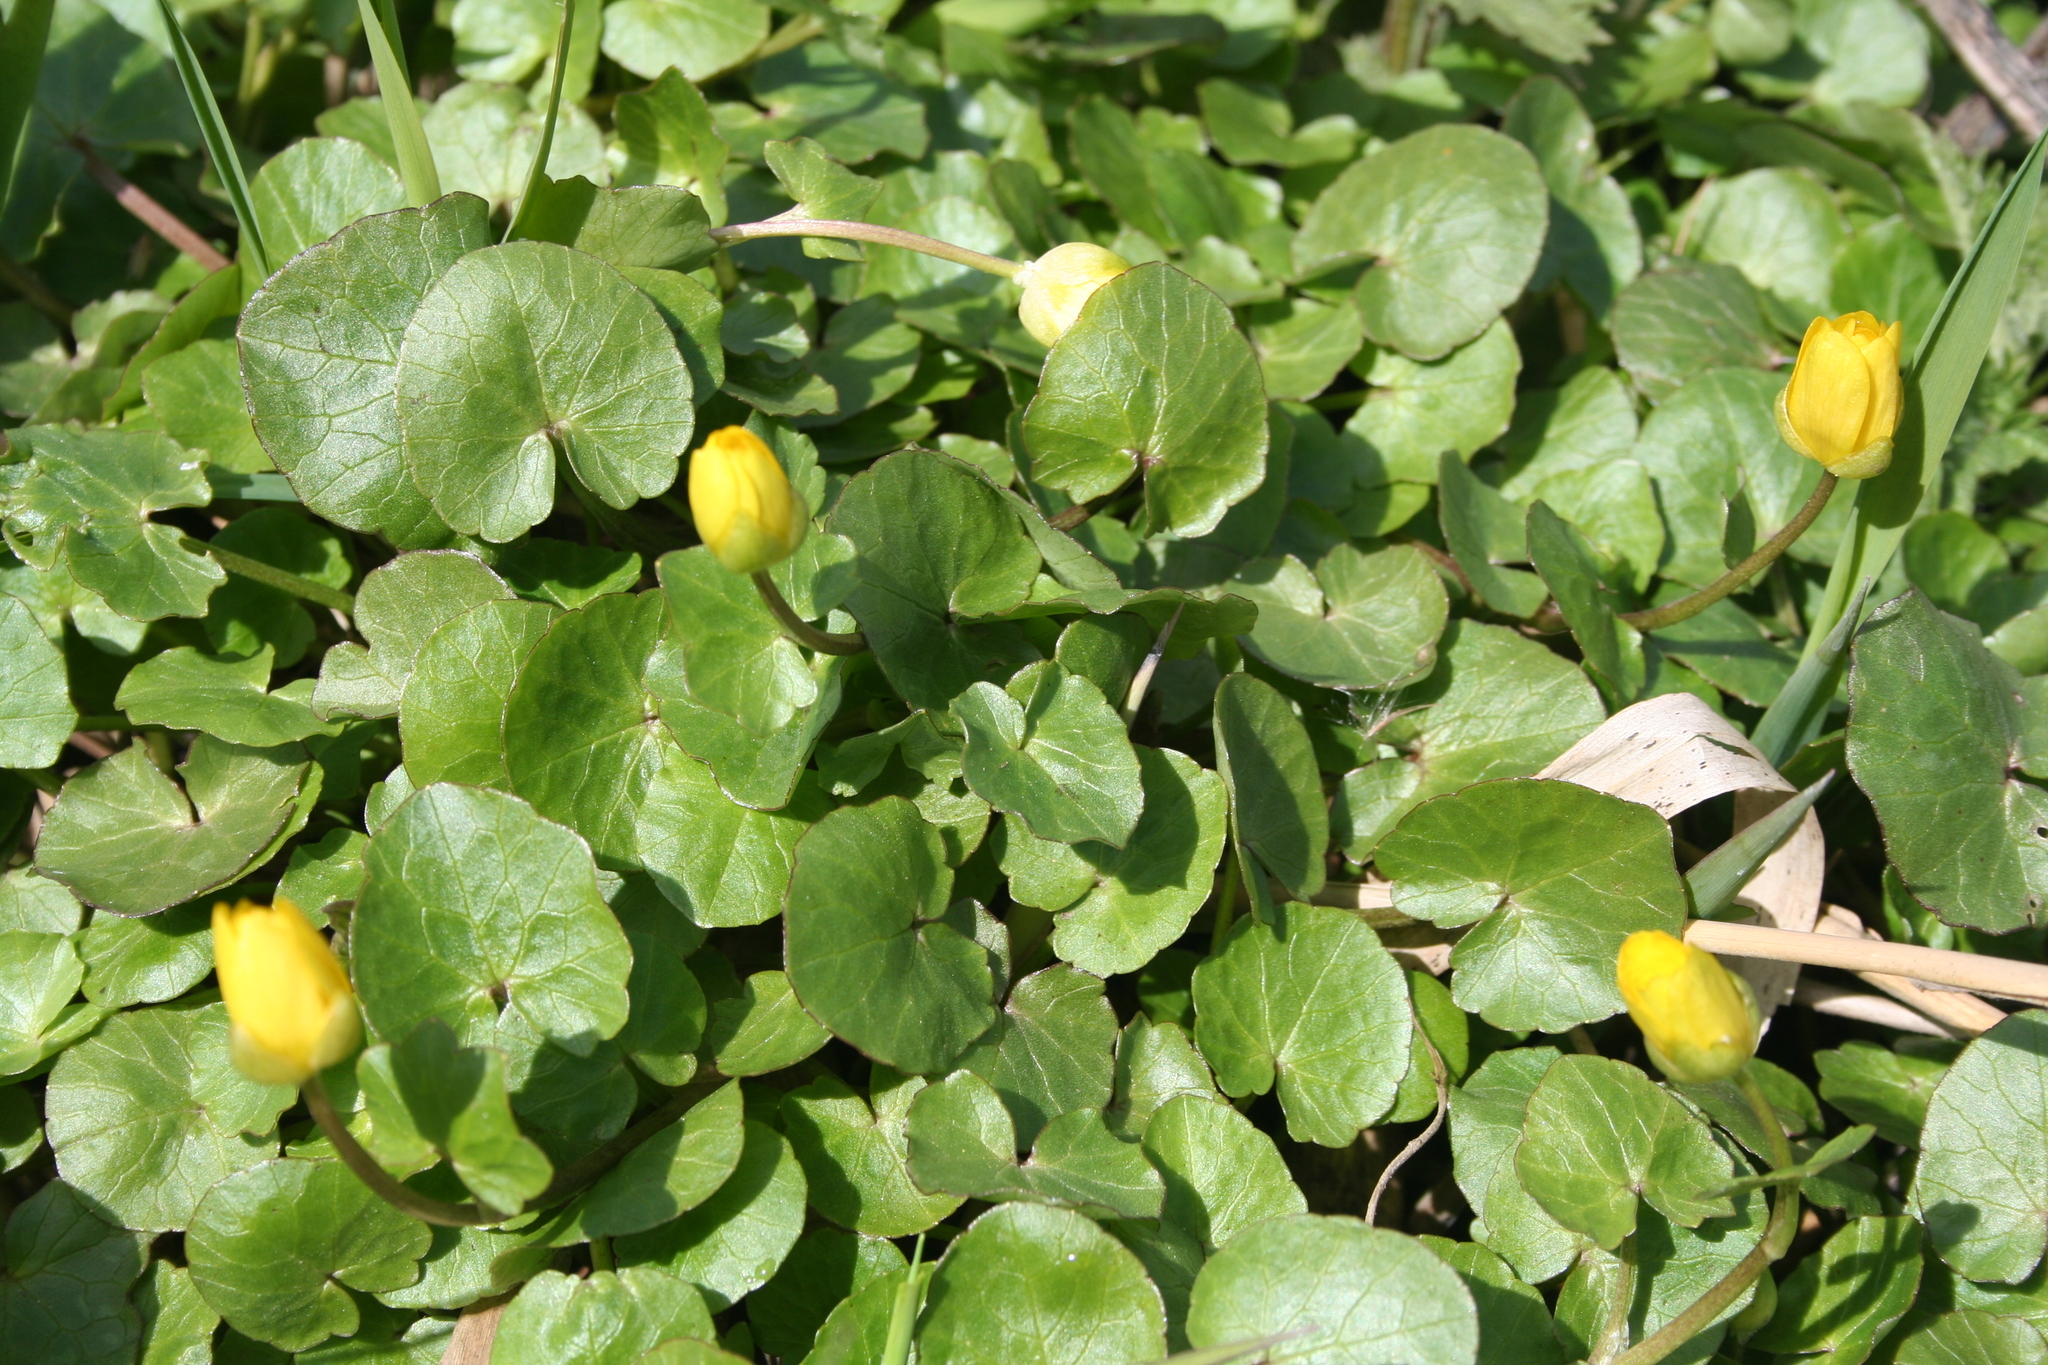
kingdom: Plantae
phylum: Tracheophyta
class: Magnoliopsida
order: Ranunculales
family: Ranunculaceae
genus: Ficaria
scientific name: Ficaria verna
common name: Lesser celandine
